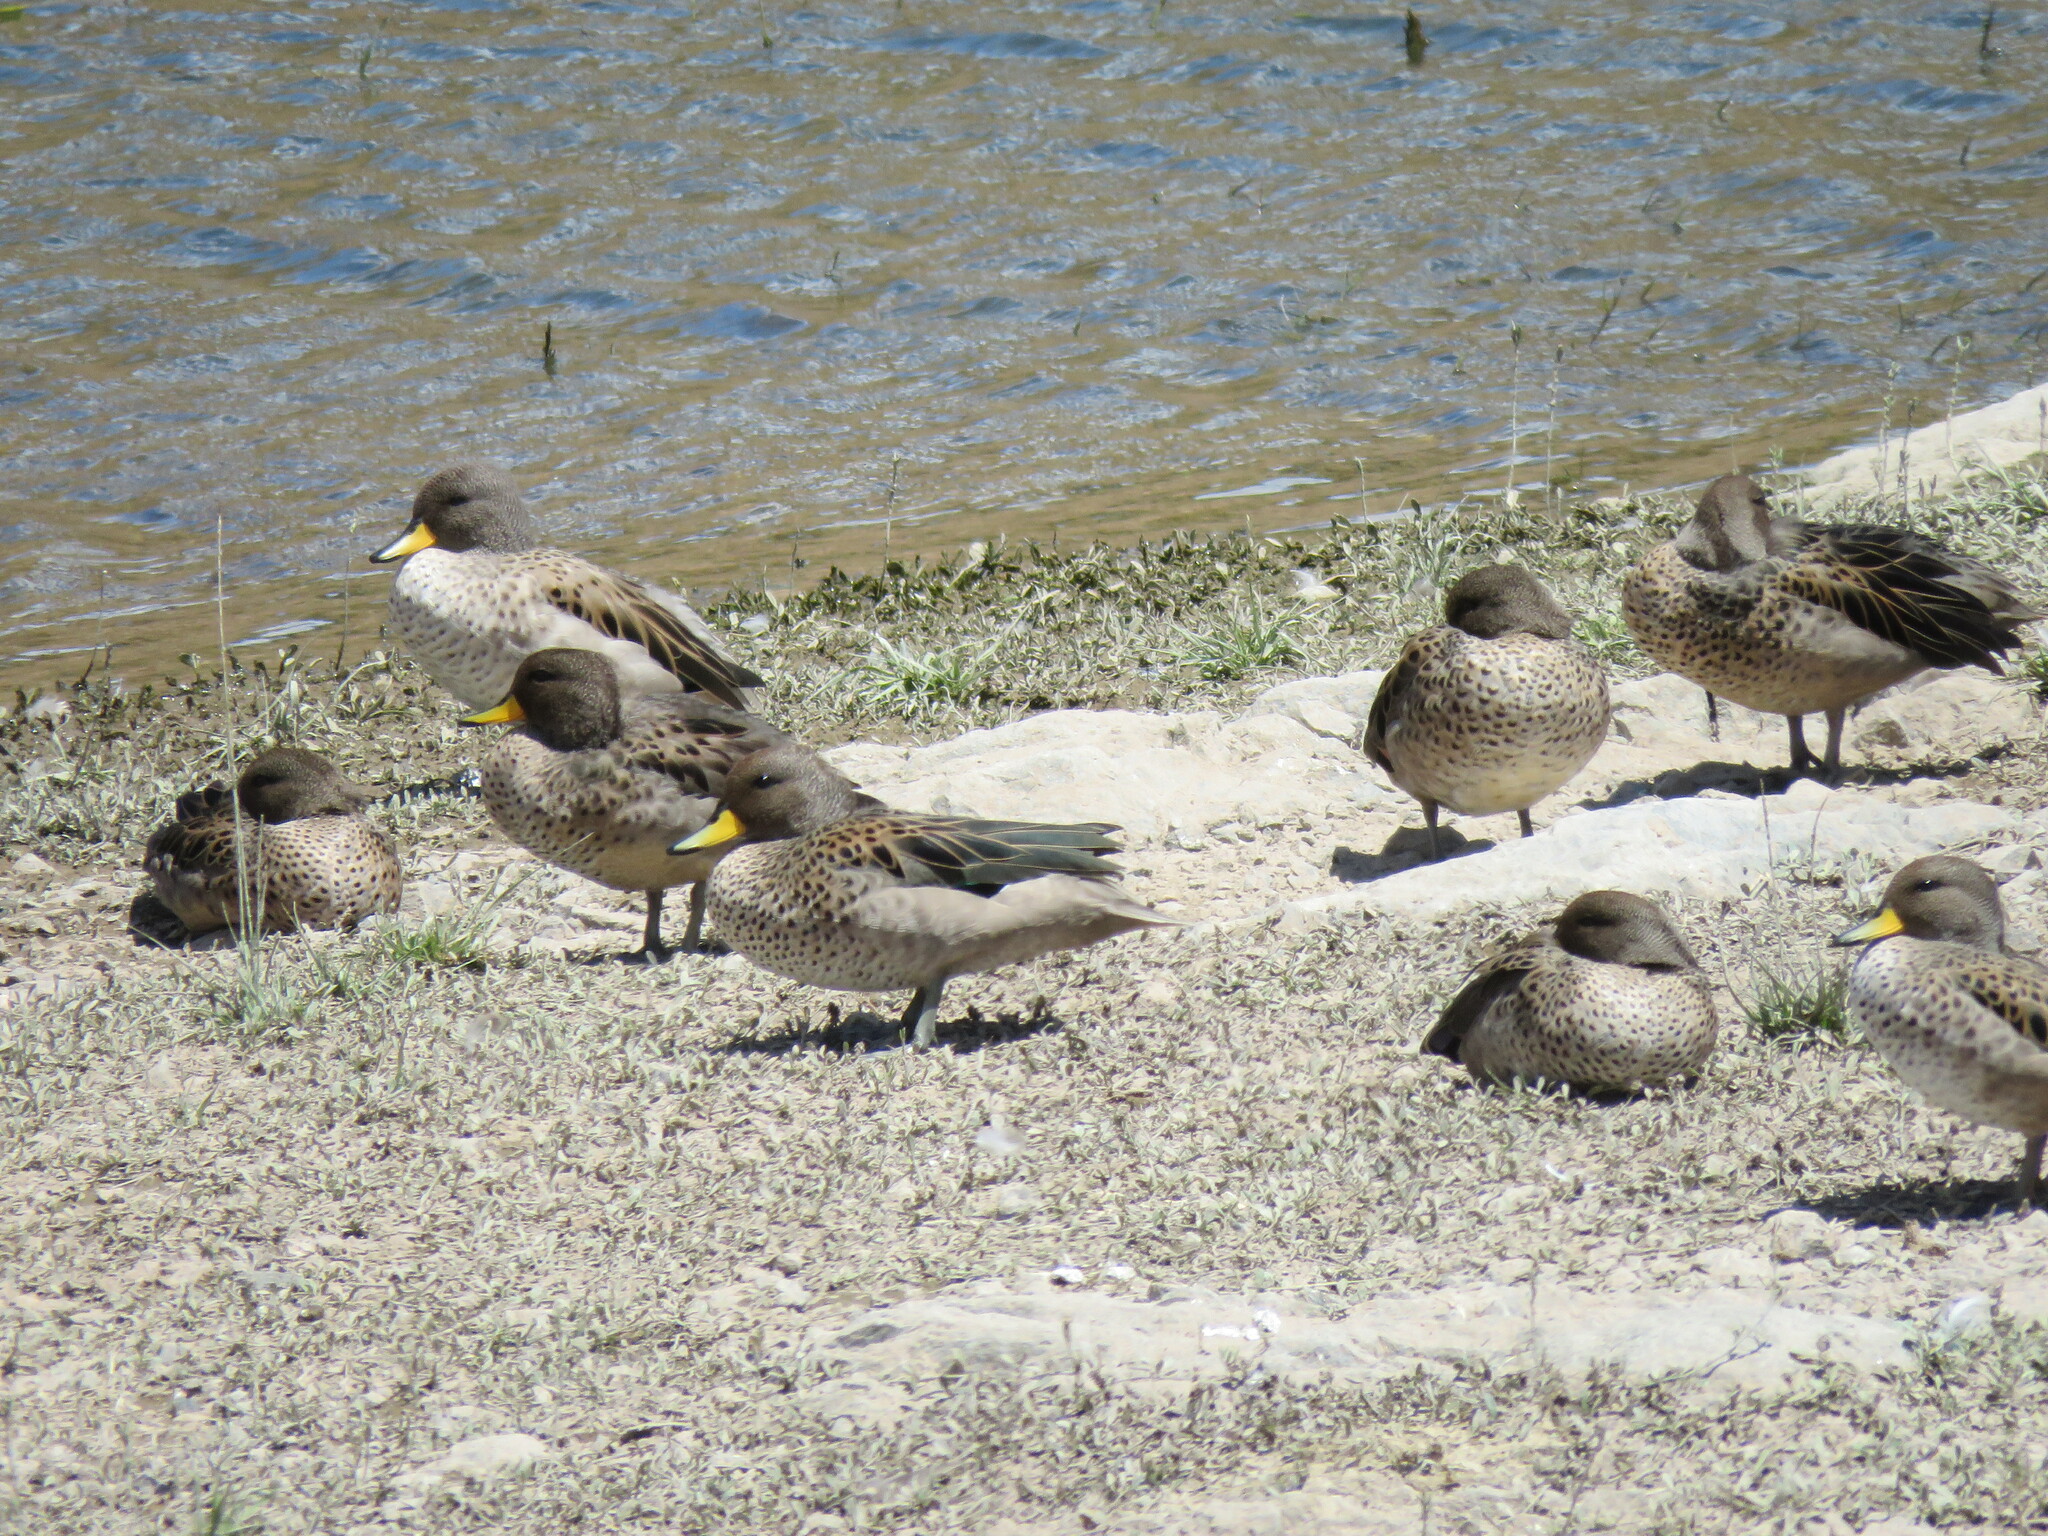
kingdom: Animalia
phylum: Chordata
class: Aves
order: Anseriformes
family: Anatidae
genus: Anas
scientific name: Anas flavirostris
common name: Yellow-billed teal
